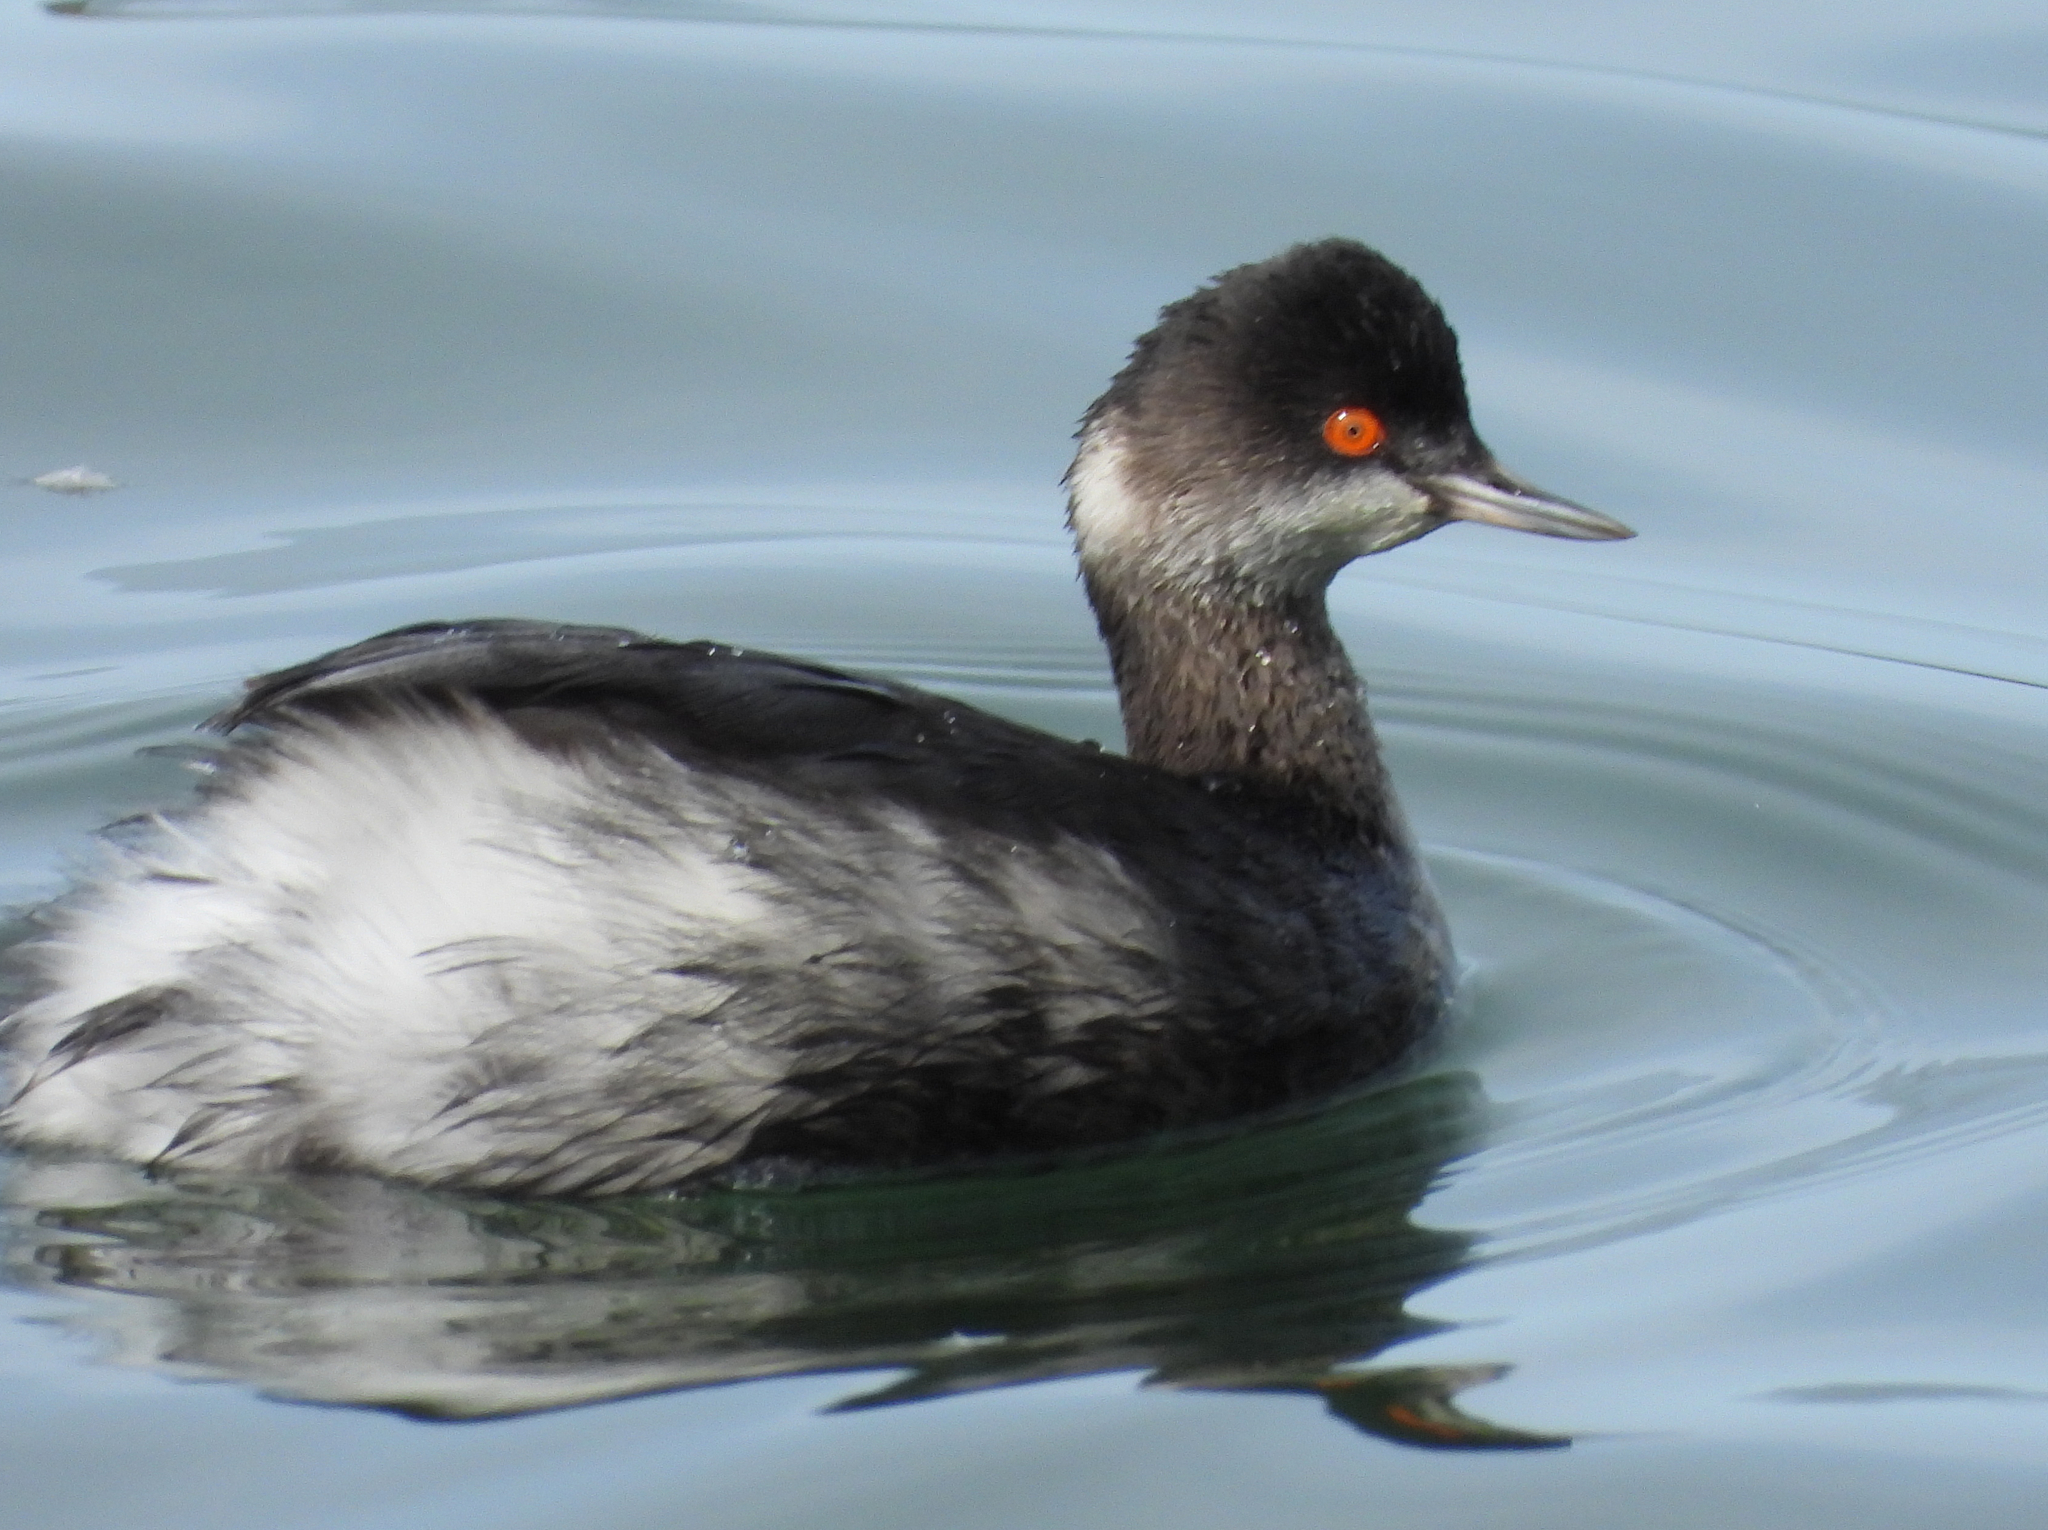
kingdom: Animalia
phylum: Chordata
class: Aves
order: Podicipediformes
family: Podicipedidae
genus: Podiceps
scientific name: Podiceps nigricollis
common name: Black-necked grebe
